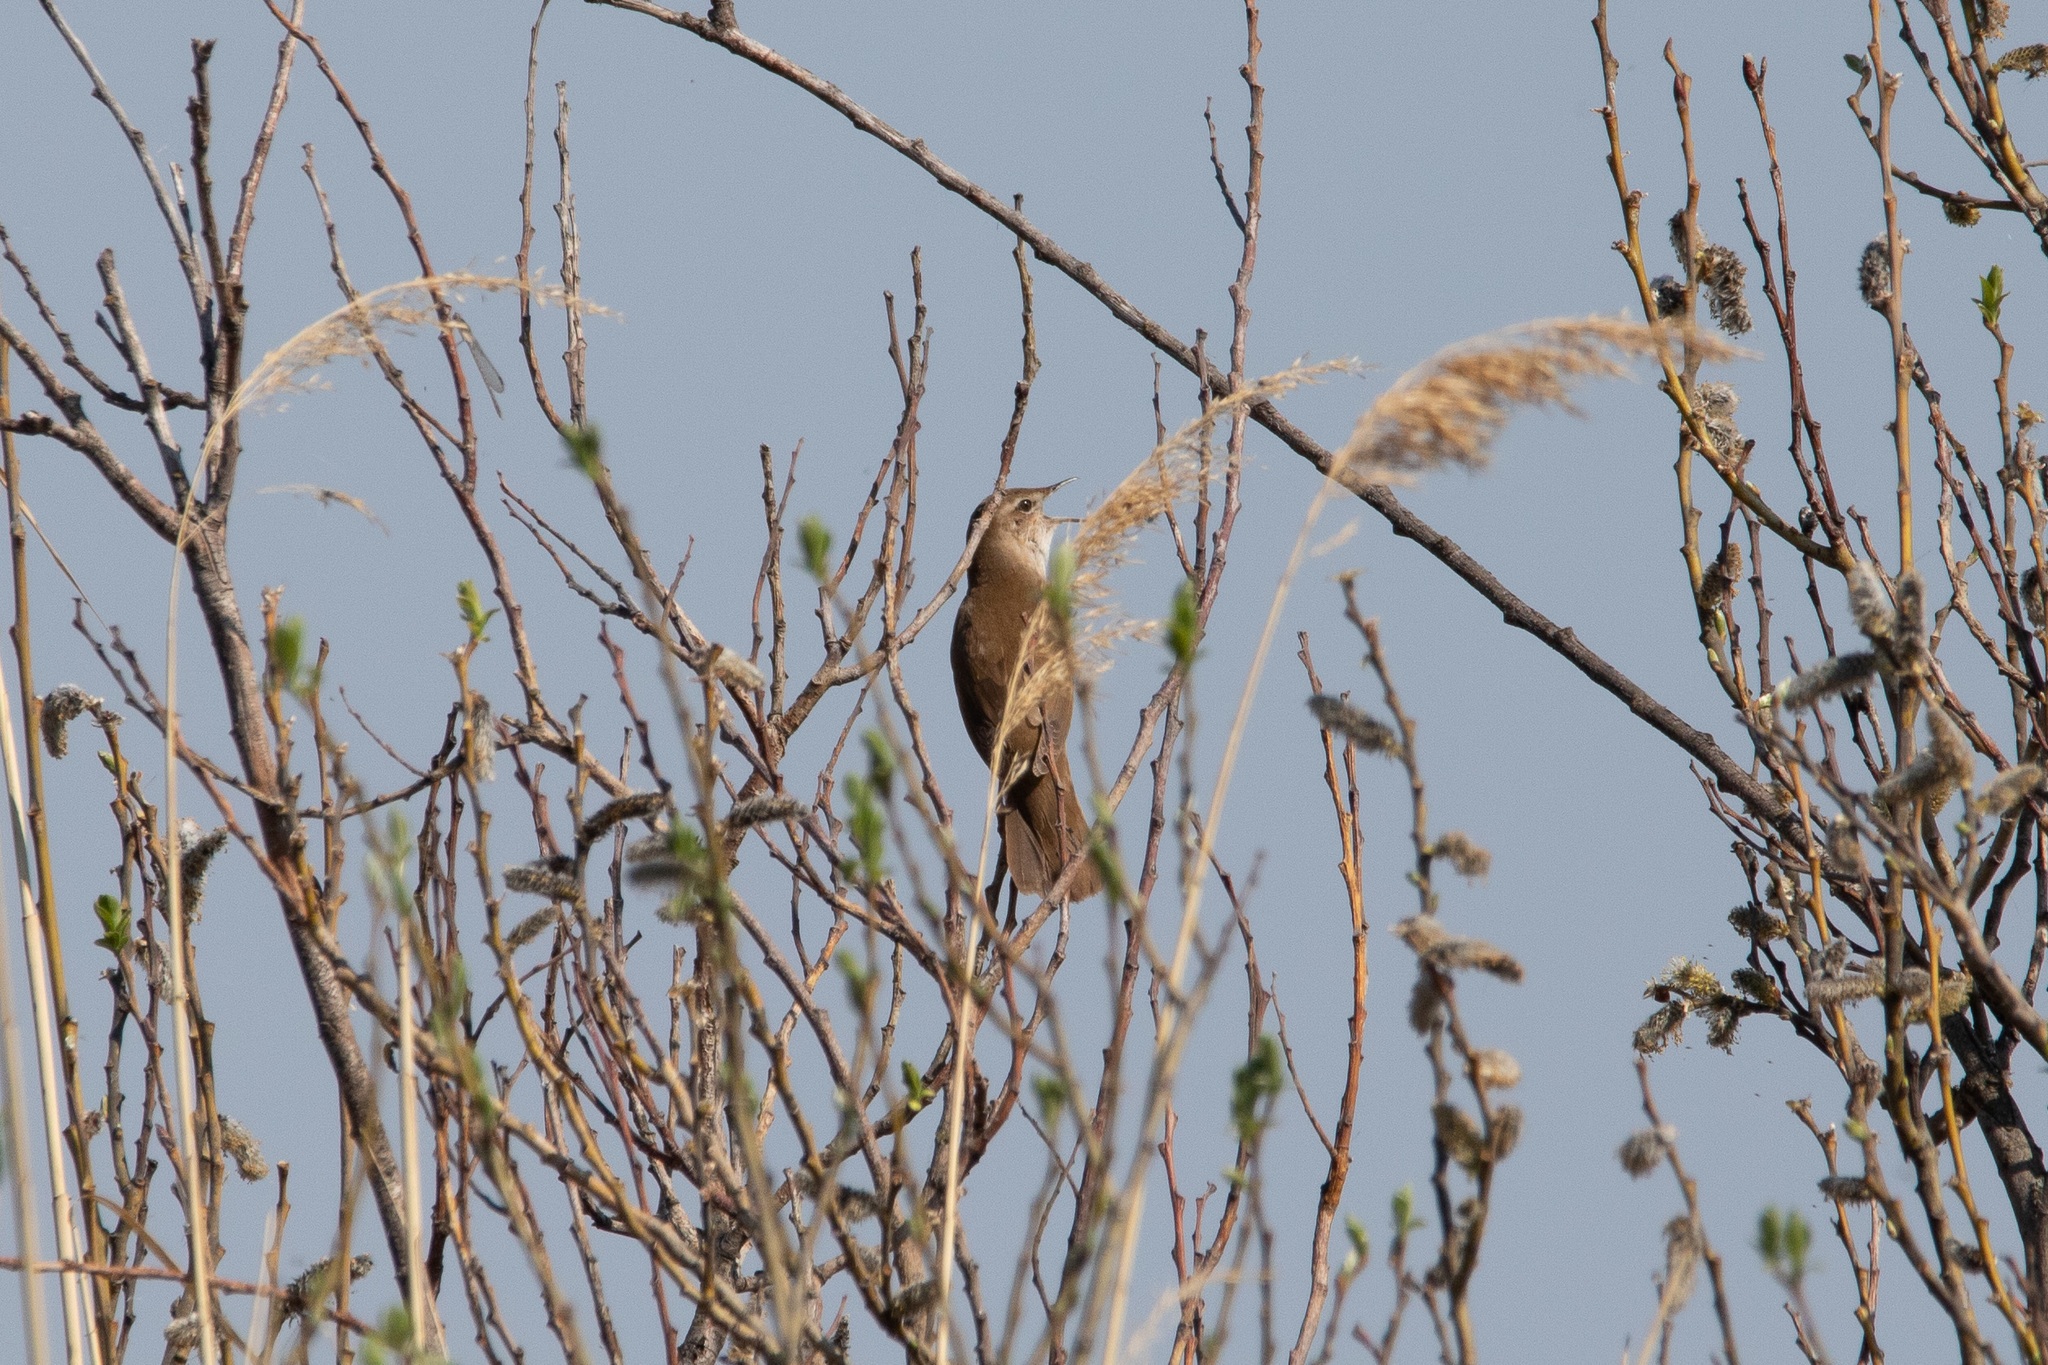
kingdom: Animalia
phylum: Chordata
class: Aves
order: Passeriformes
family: Locustellidae
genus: Locustella
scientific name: Locustella luscinioides
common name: Savi's warbler
